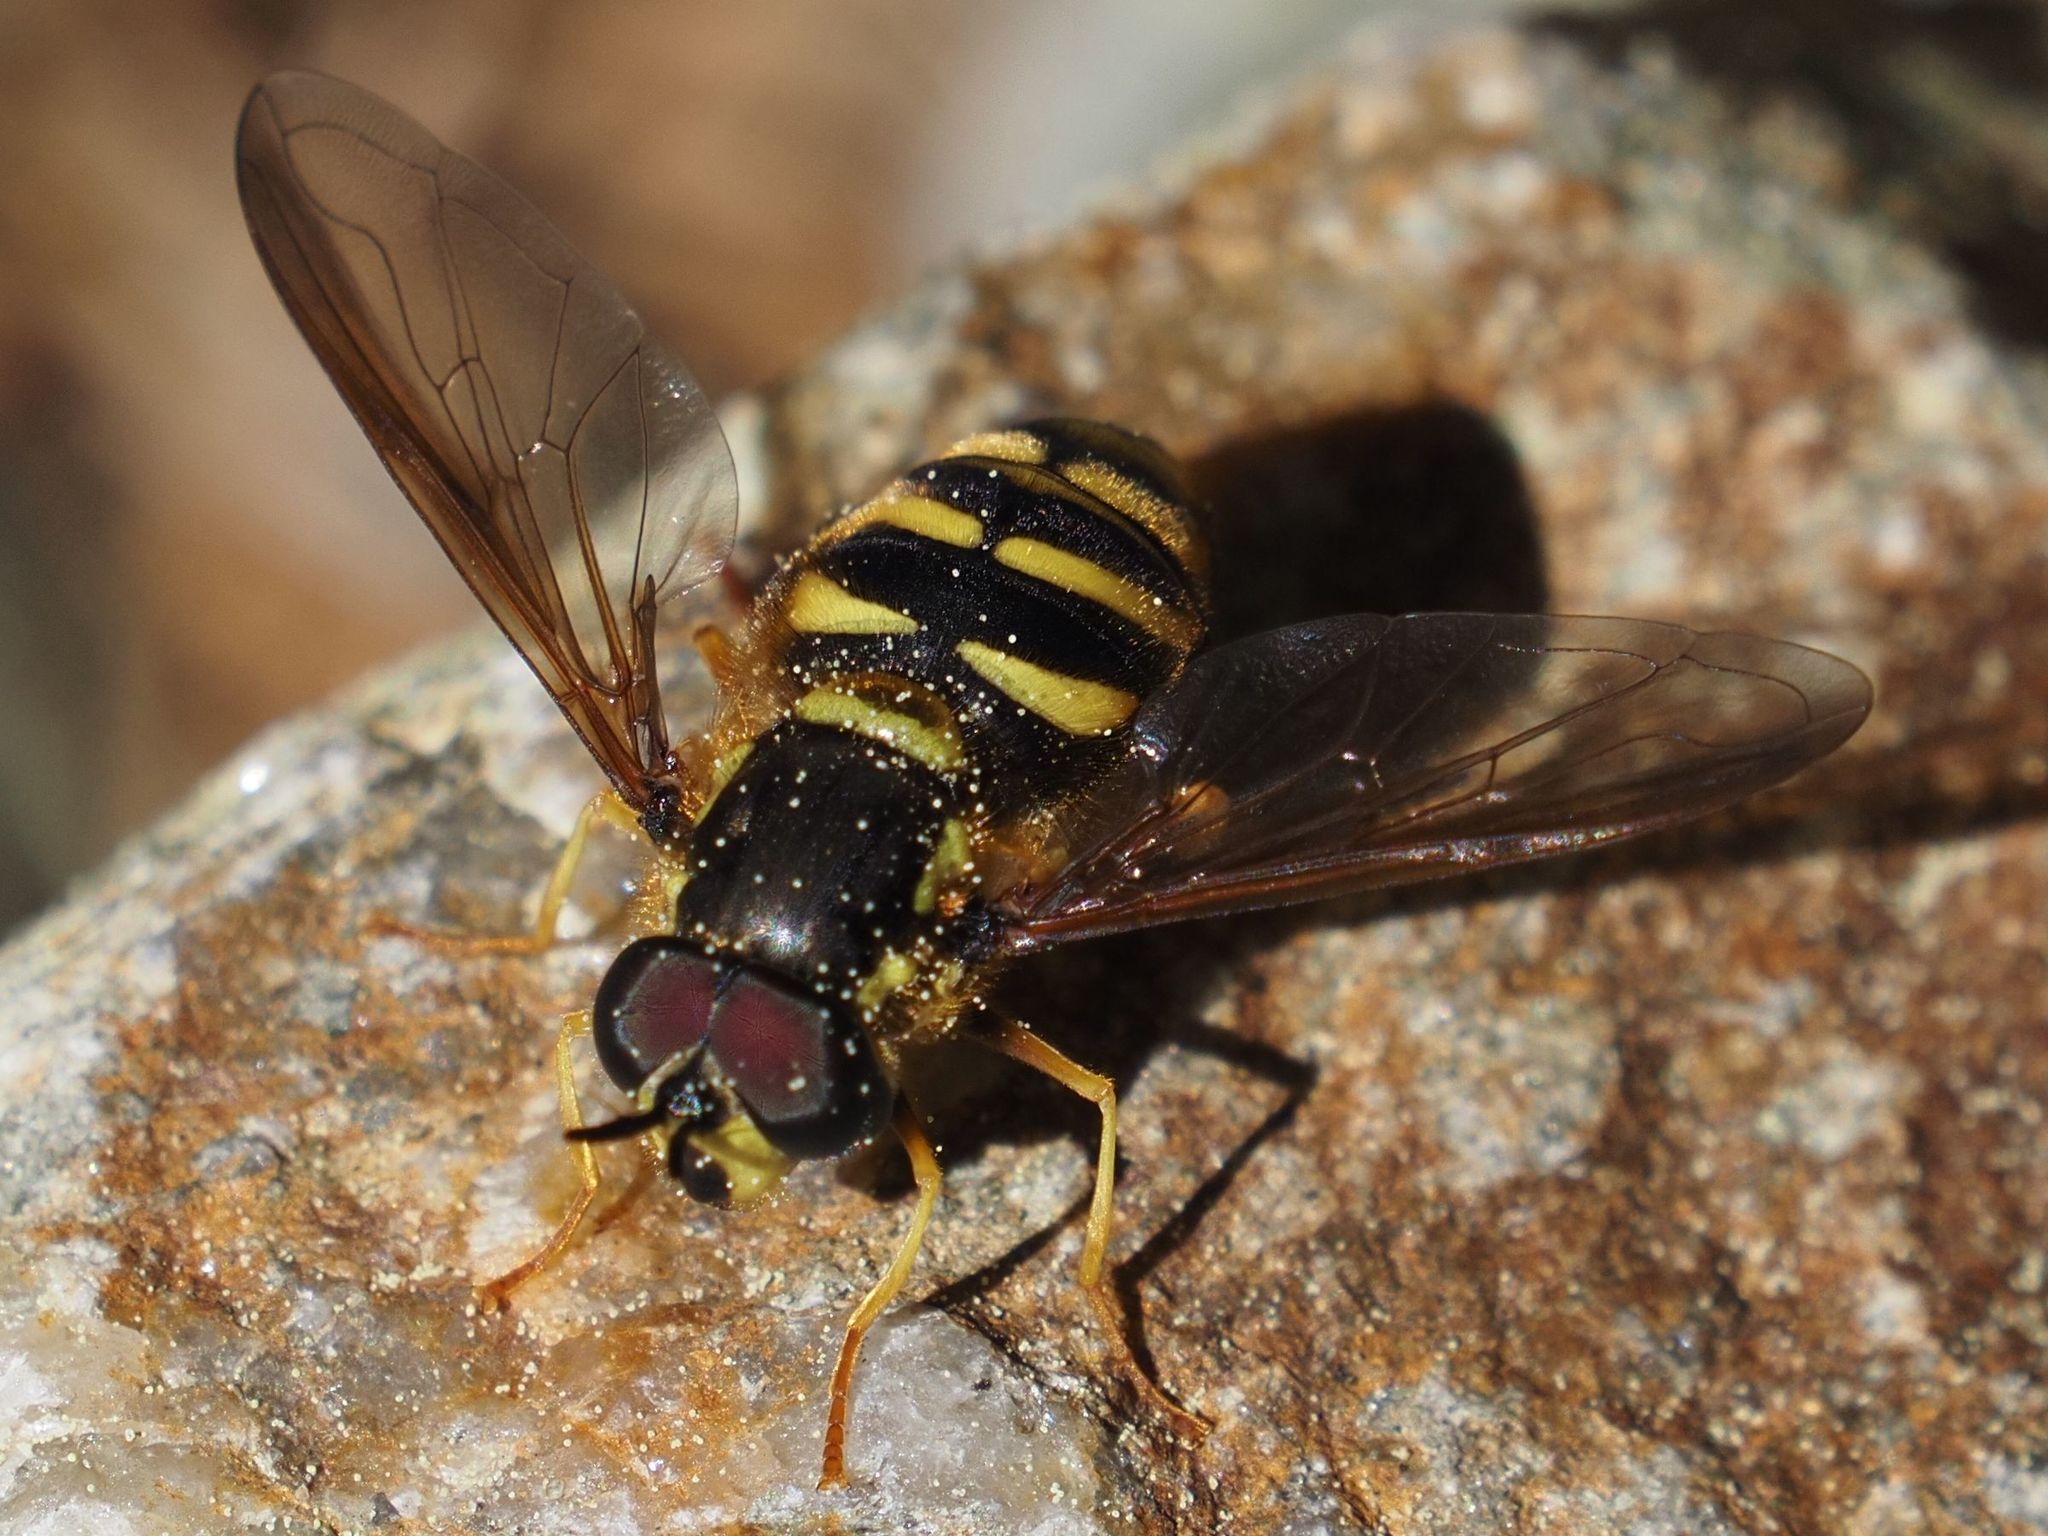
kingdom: Animalia
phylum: Arthropoda
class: Insecta
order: Diptera
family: Syrphidae
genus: Chrysotoxum
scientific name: Chrysotoxum intermedium
